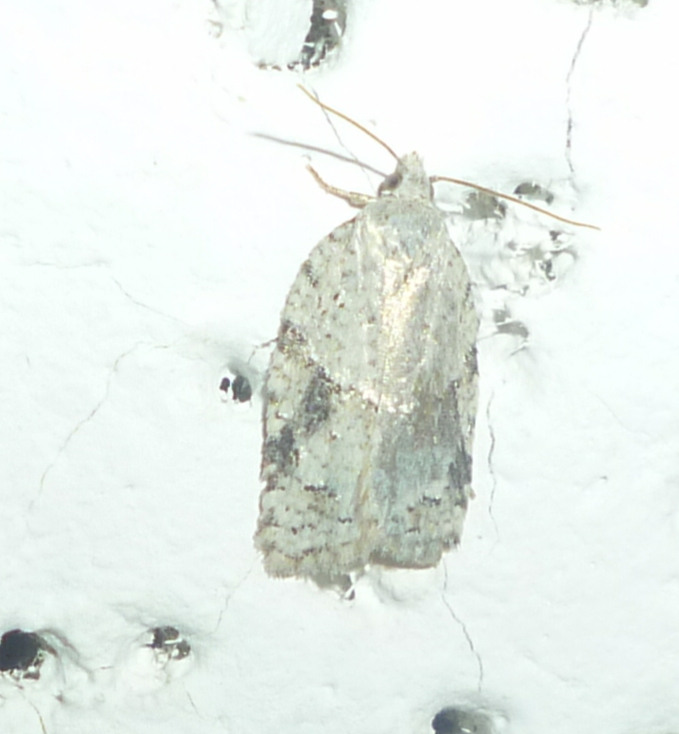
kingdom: Animalia
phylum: Arthropoda
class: Insecta
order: Lepidoptera
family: Tortricidae
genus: Acleris
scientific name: Acleris placidana
